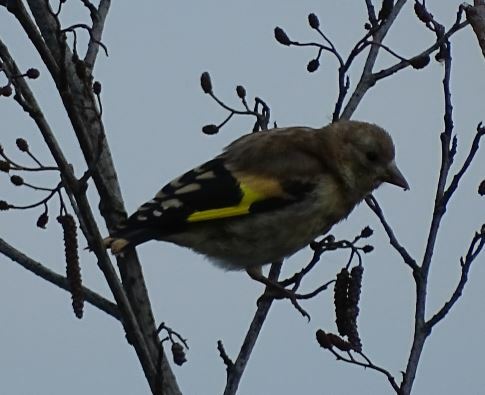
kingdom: Animalia
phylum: Chordata
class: Aves
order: Passeriformes
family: Fringillidae
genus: Carduelis
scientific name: Carduelis carduelis
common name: European goldfinch
